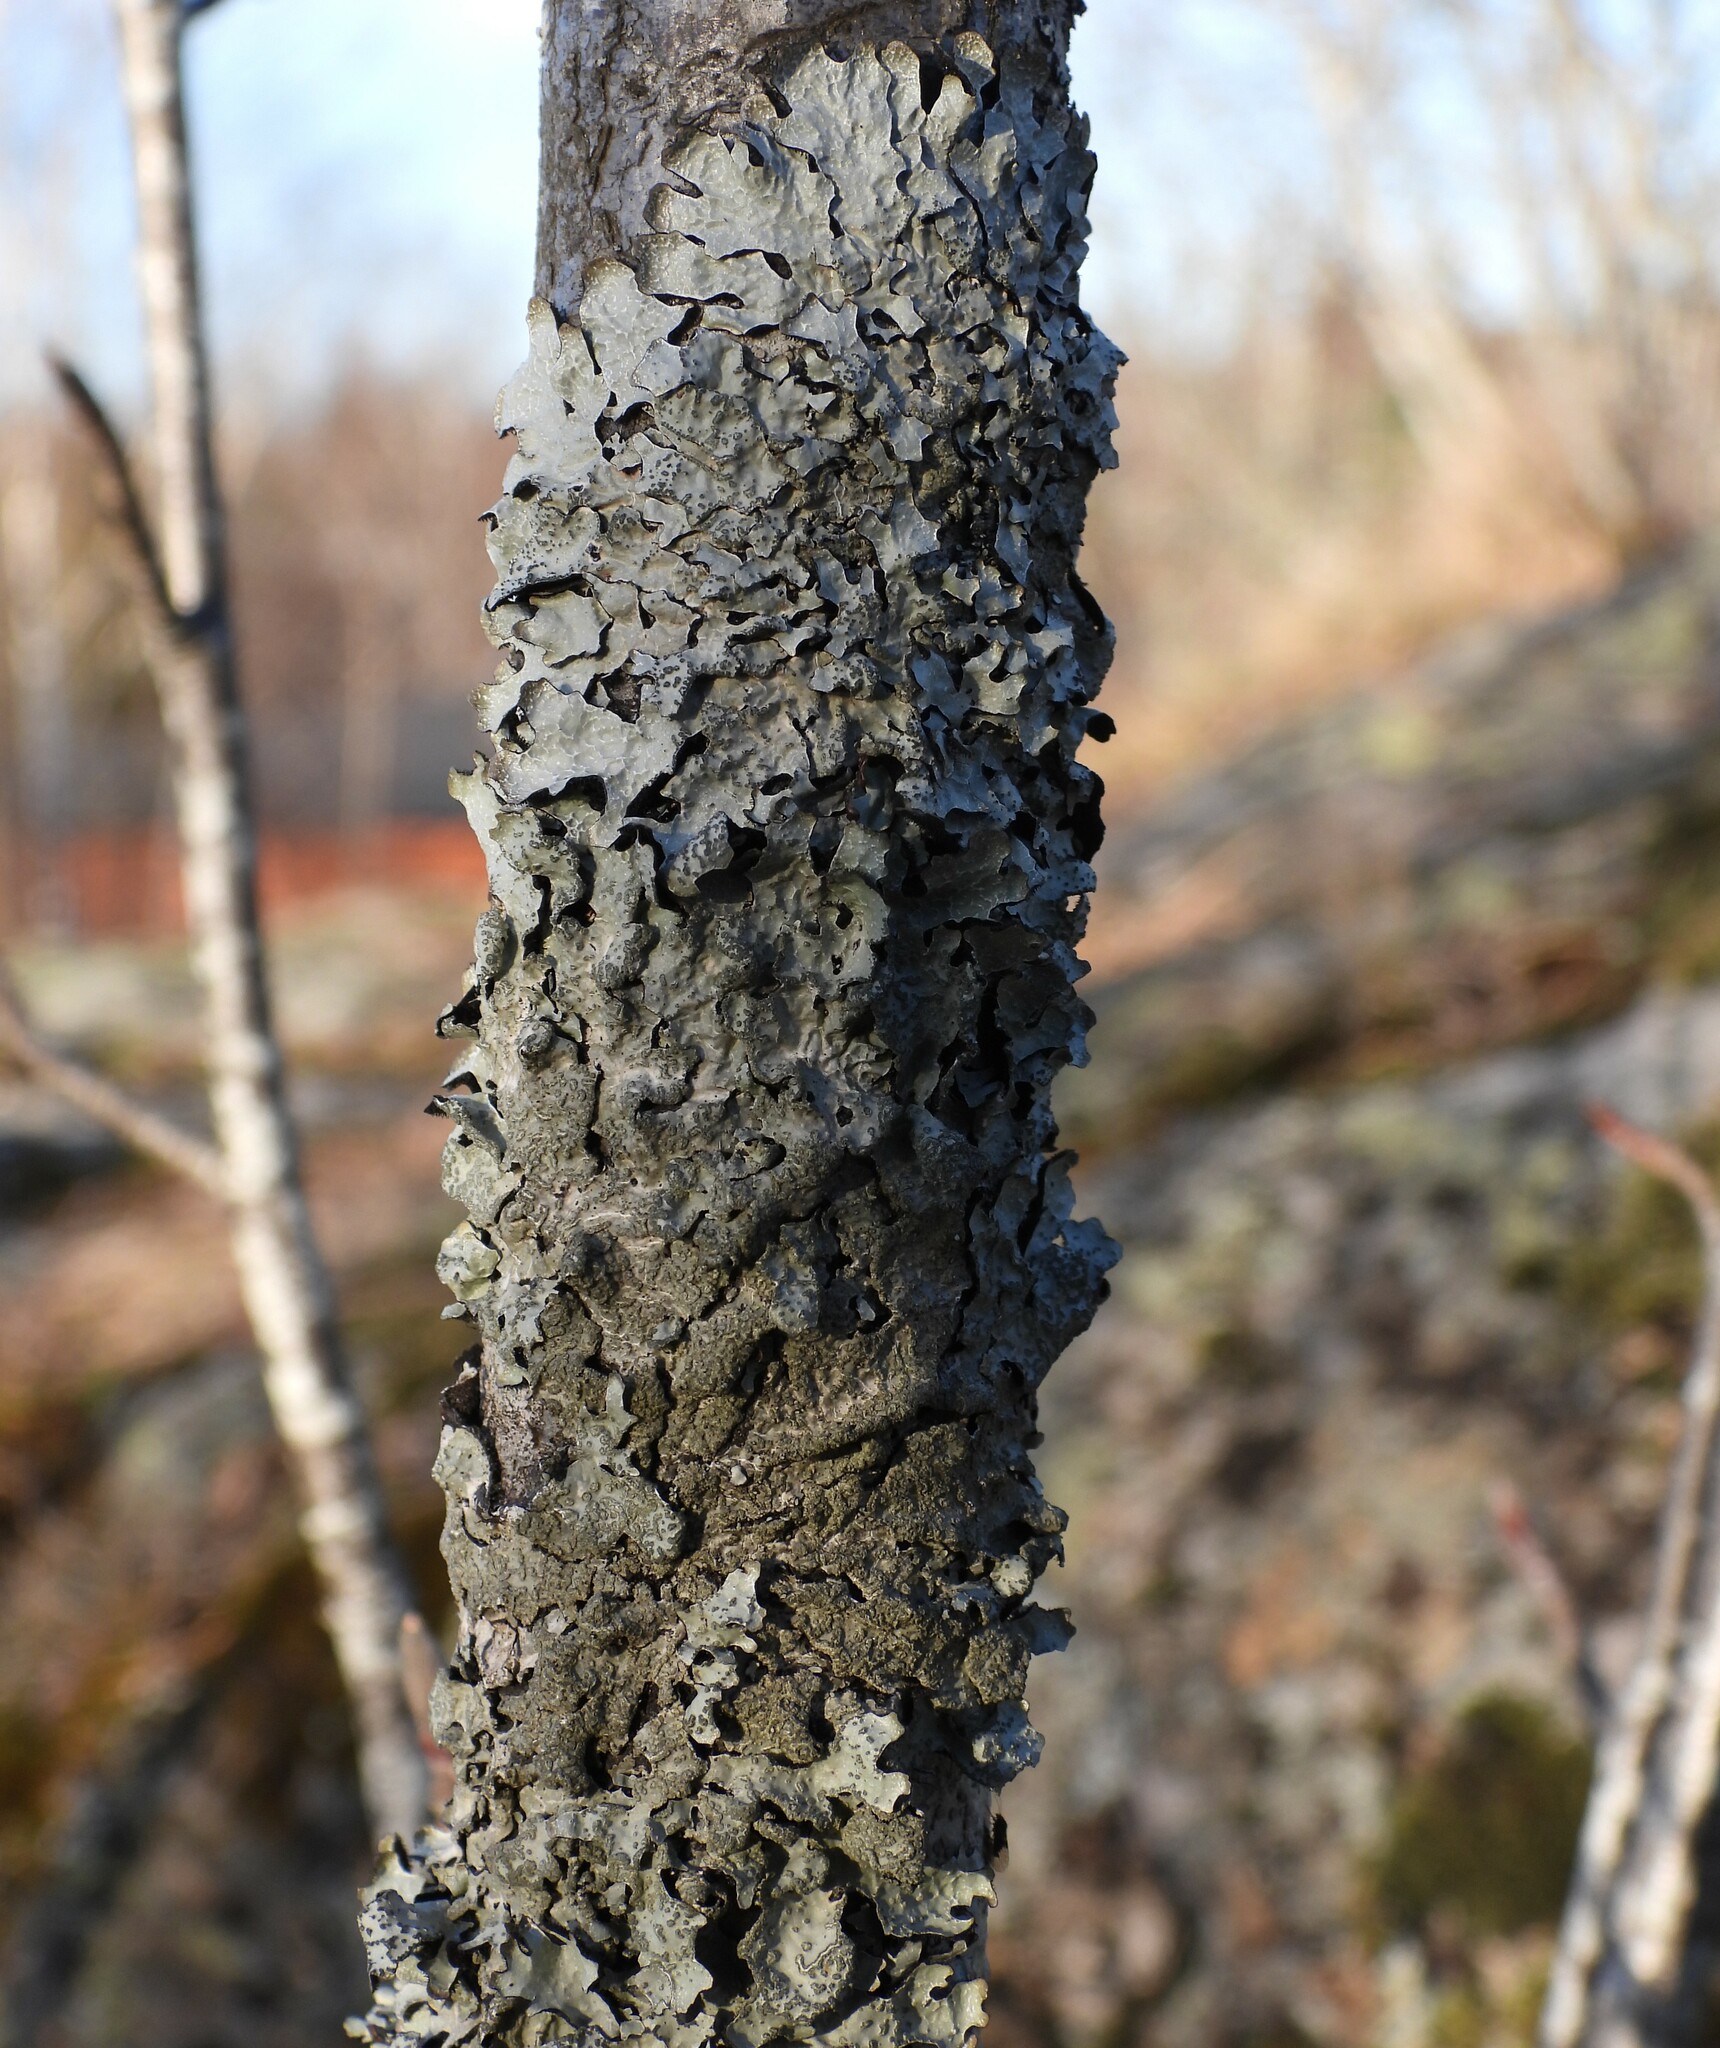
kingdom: Fungi
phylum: Ascomycota
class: Lecanoromycetes
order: Lecanorales
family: Parmeliaceae
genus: Parmelia
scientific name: Parmelia sulcata
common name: Netted shield lichen
